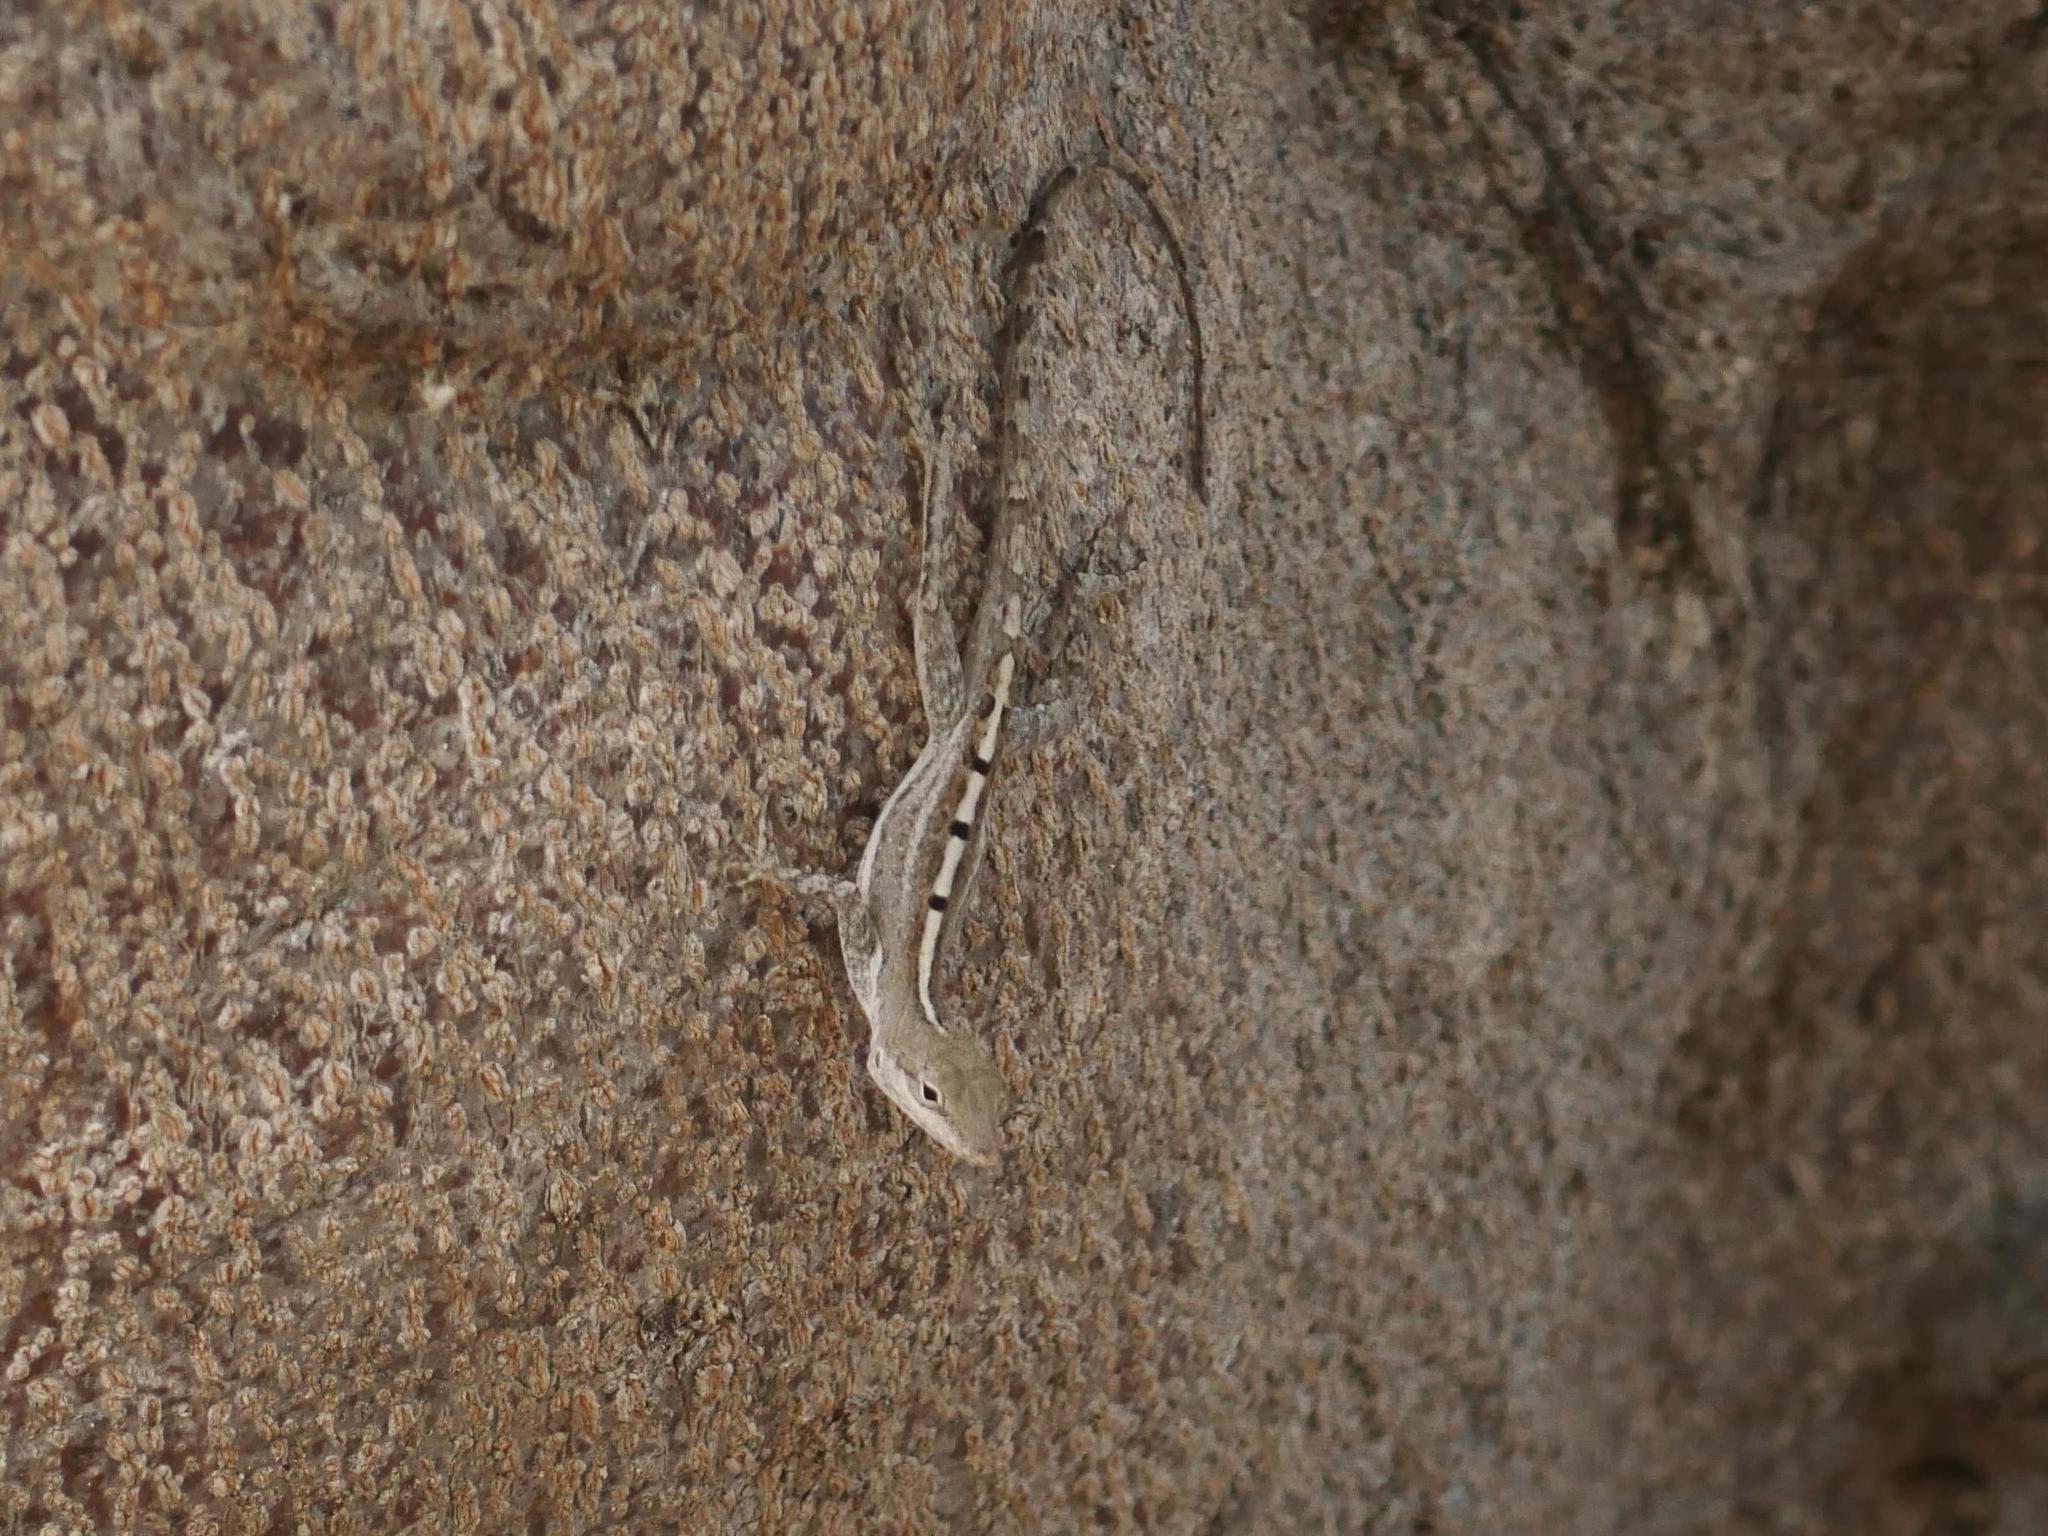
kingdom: Animalia
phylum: Chordata
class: Squamata
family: Dactyloidae
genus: Anolis
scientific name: Anolis scriptus
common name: Silver key anole
